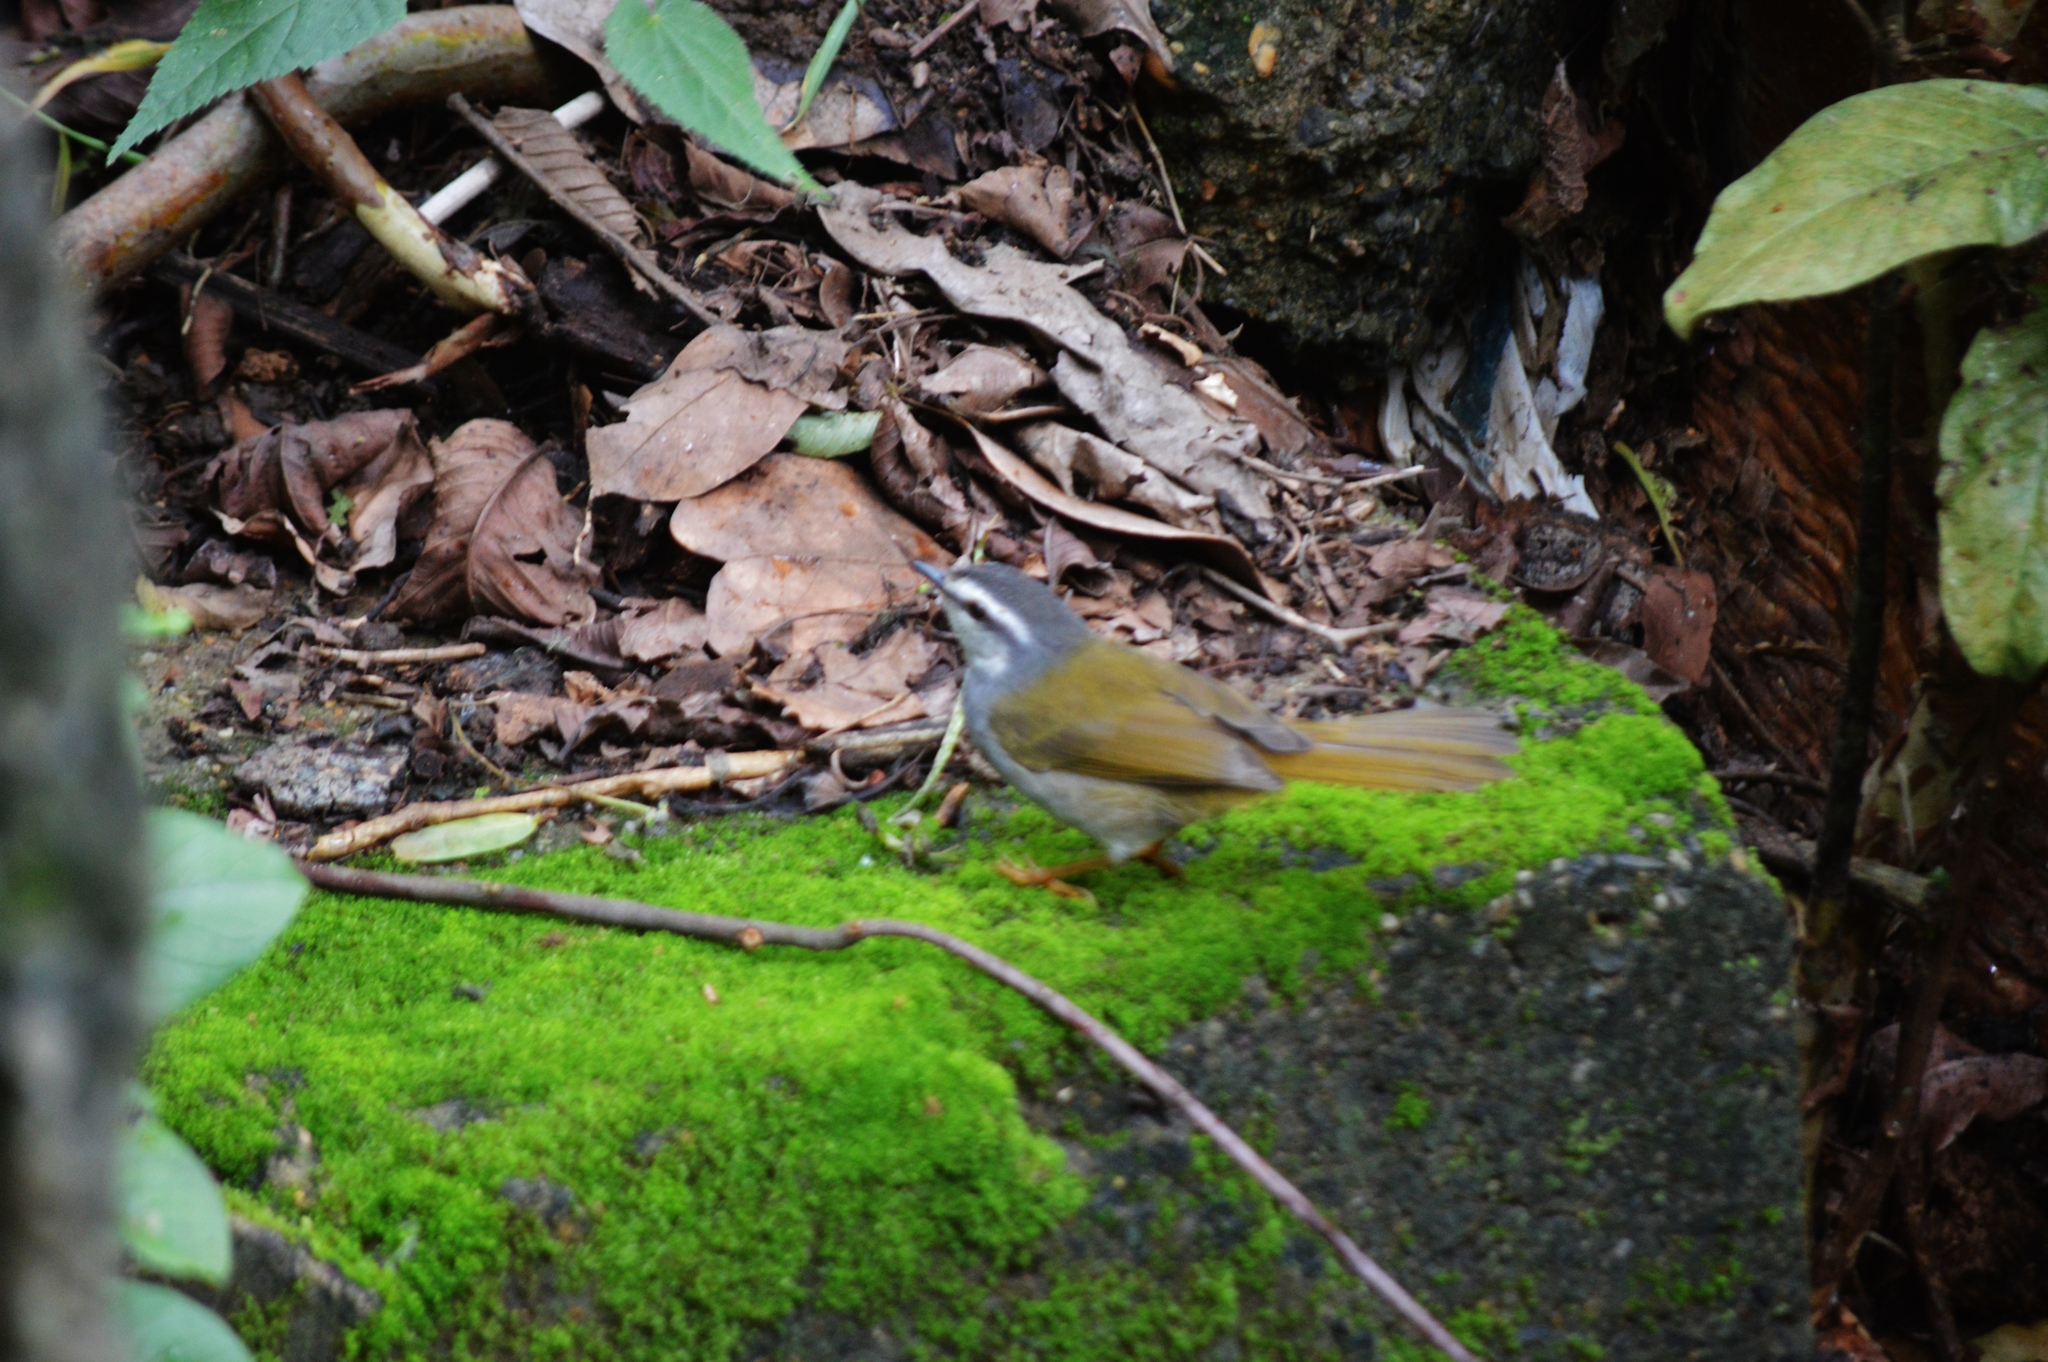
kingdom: Animalia
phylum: Chordata
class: Aves
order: Passeriformes
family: Parulidae
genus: Myiothlypis
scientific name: Myiothlypis leucophrys
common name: White-striped warbler
